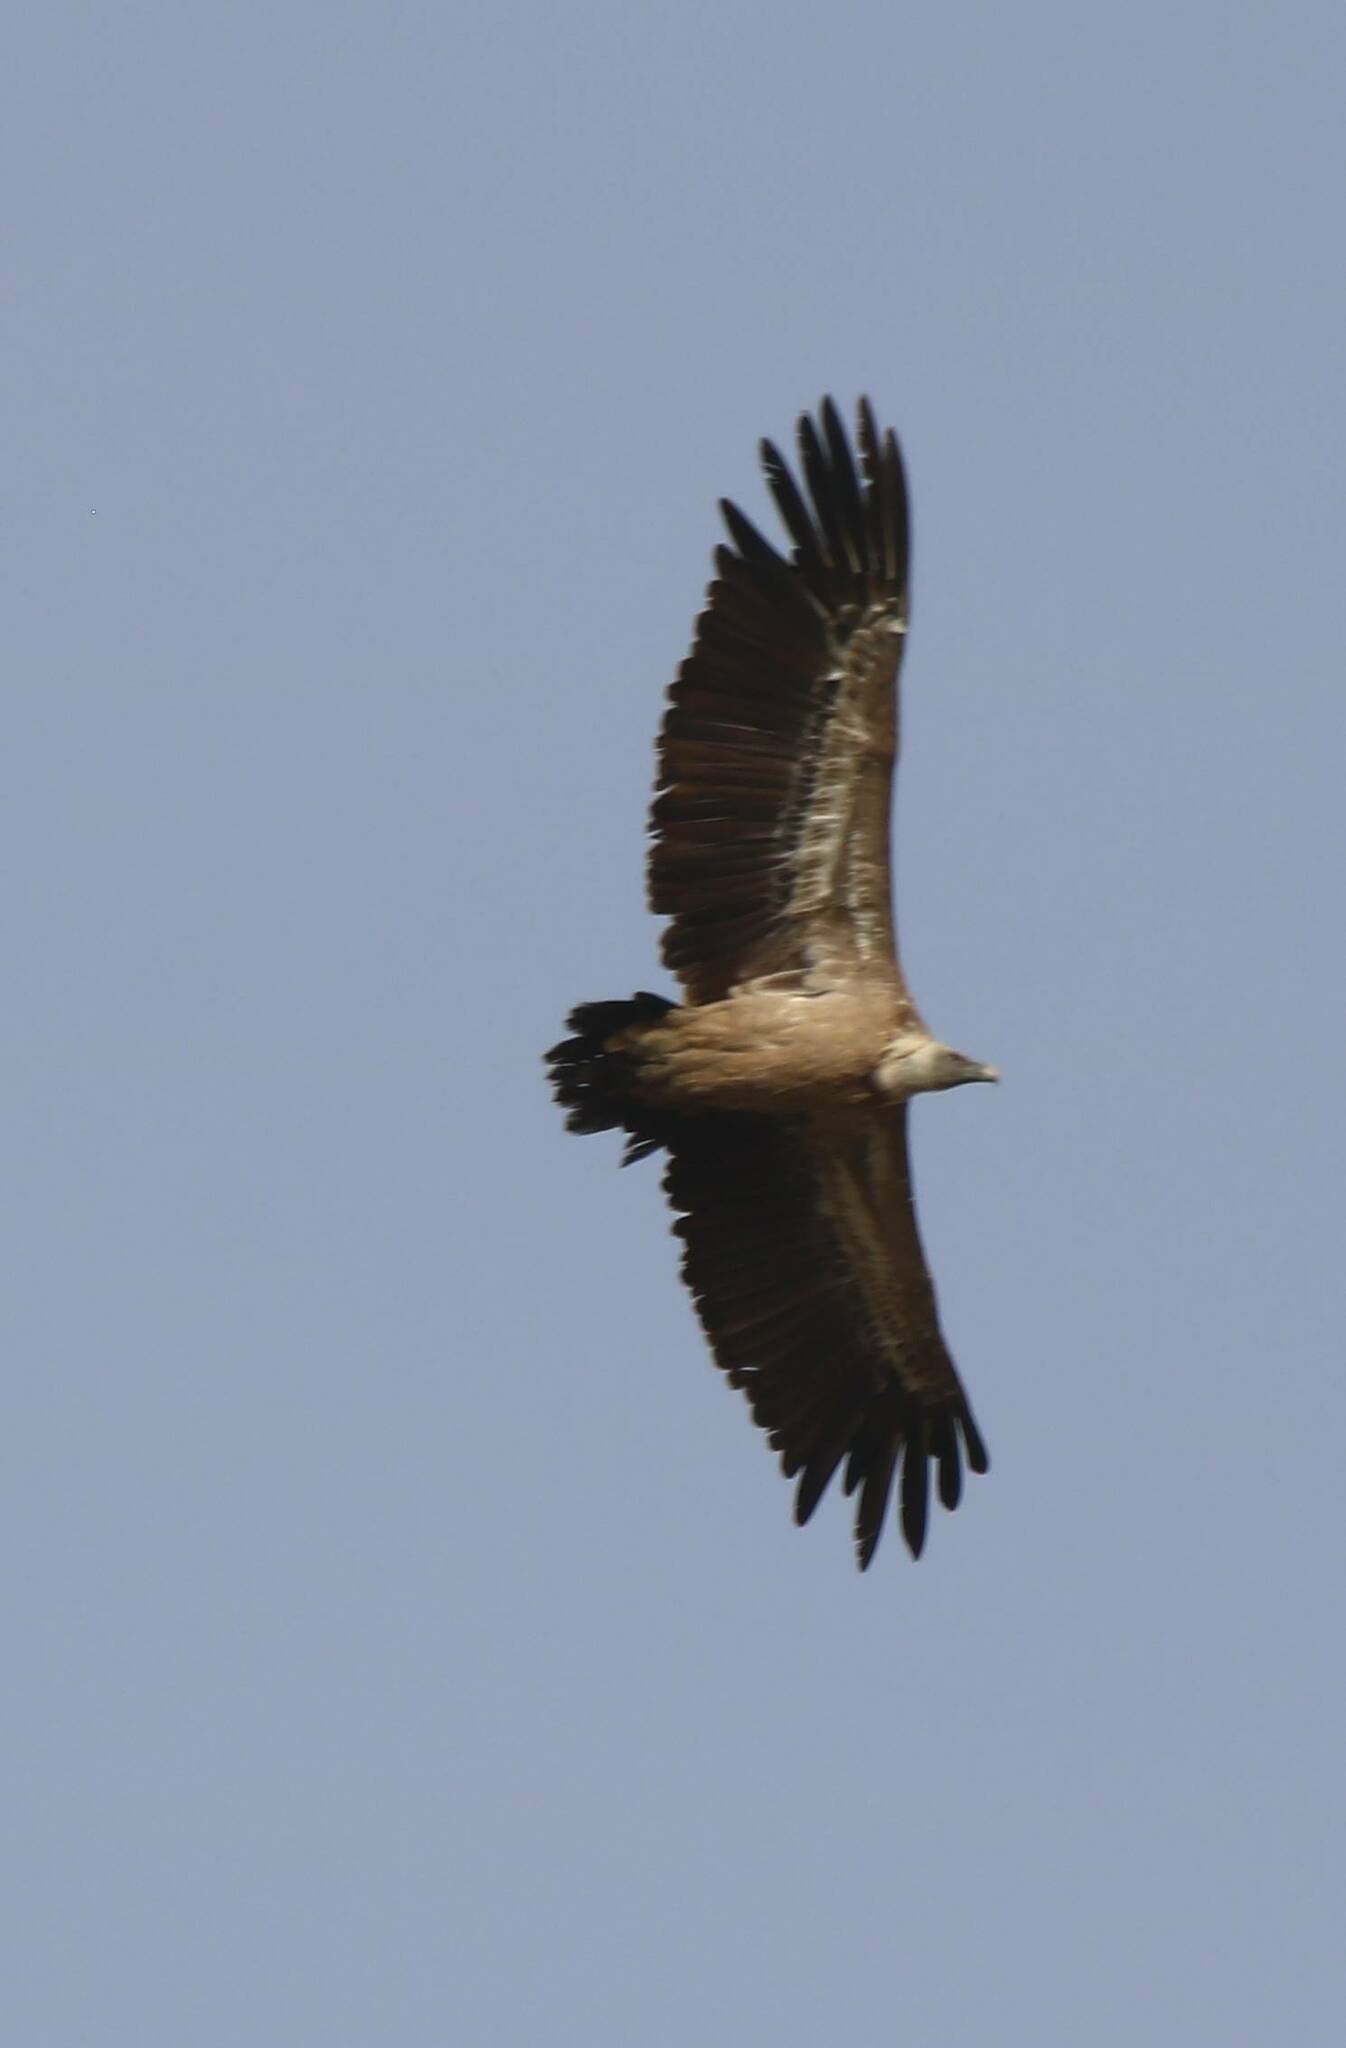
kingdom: Animalia
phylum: Chordata
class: Aves
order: Accipitriformes
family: Accipitridae
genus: Gyps
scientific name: Gyps fulvus
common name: Griffon vulture
